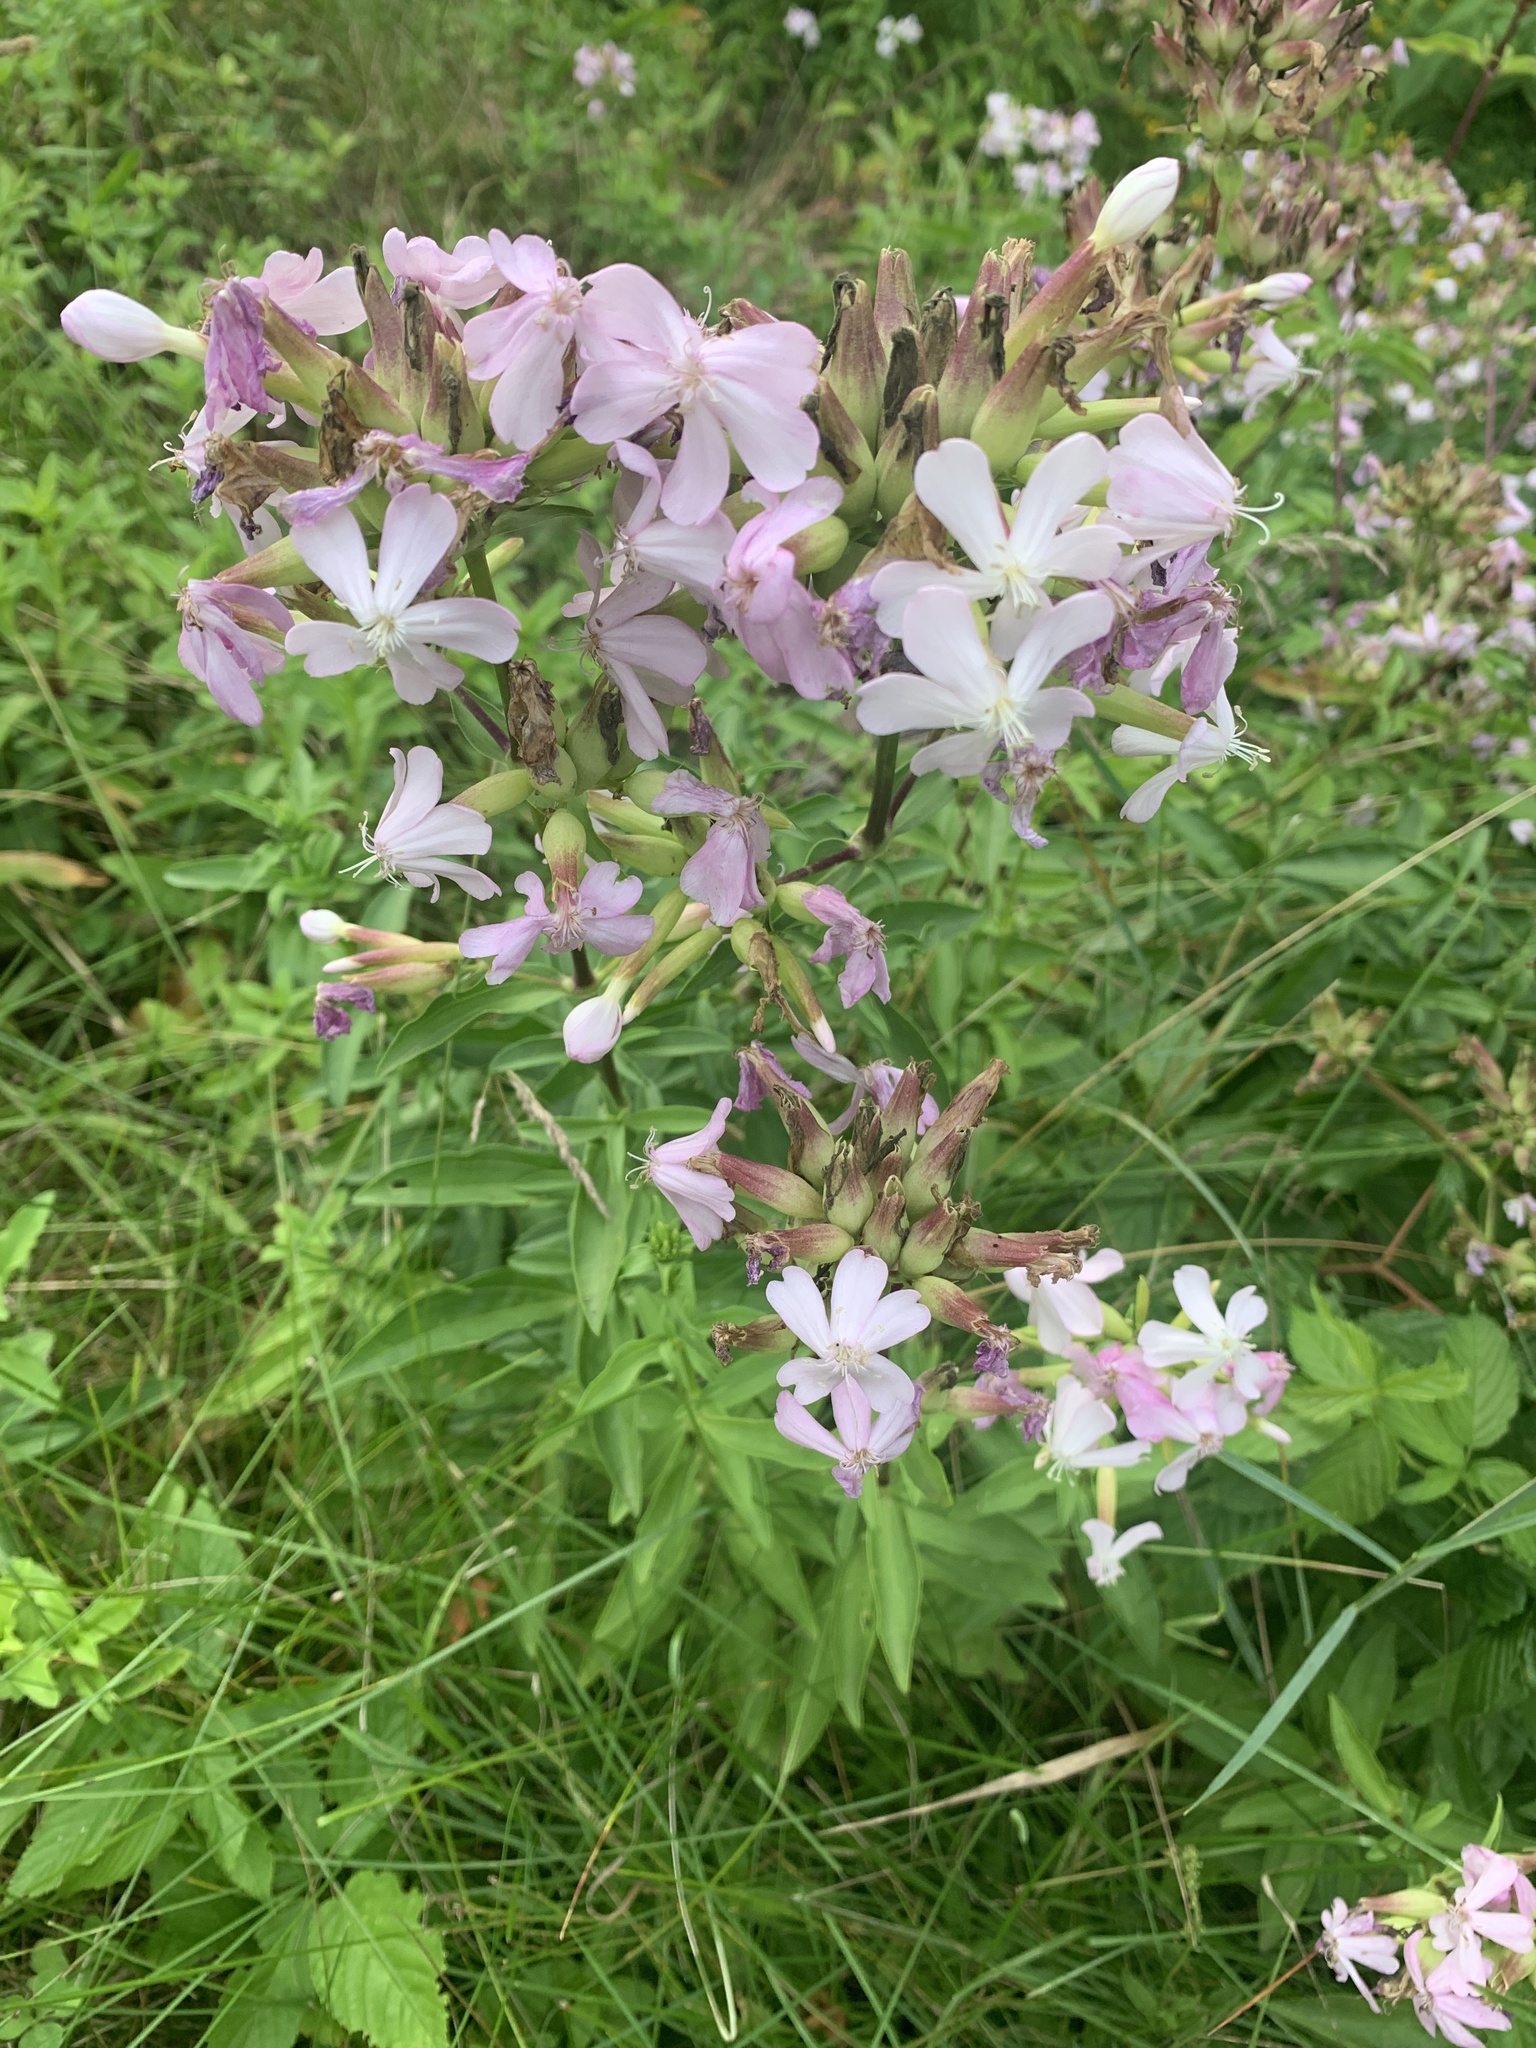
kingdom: Plantae
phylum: Tracheophyta
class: Magnoliopsida
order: Caryophyllales
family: Caryophyllaceae
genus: Saponaria
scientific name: Saponaria officinalis
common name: Soapwort
